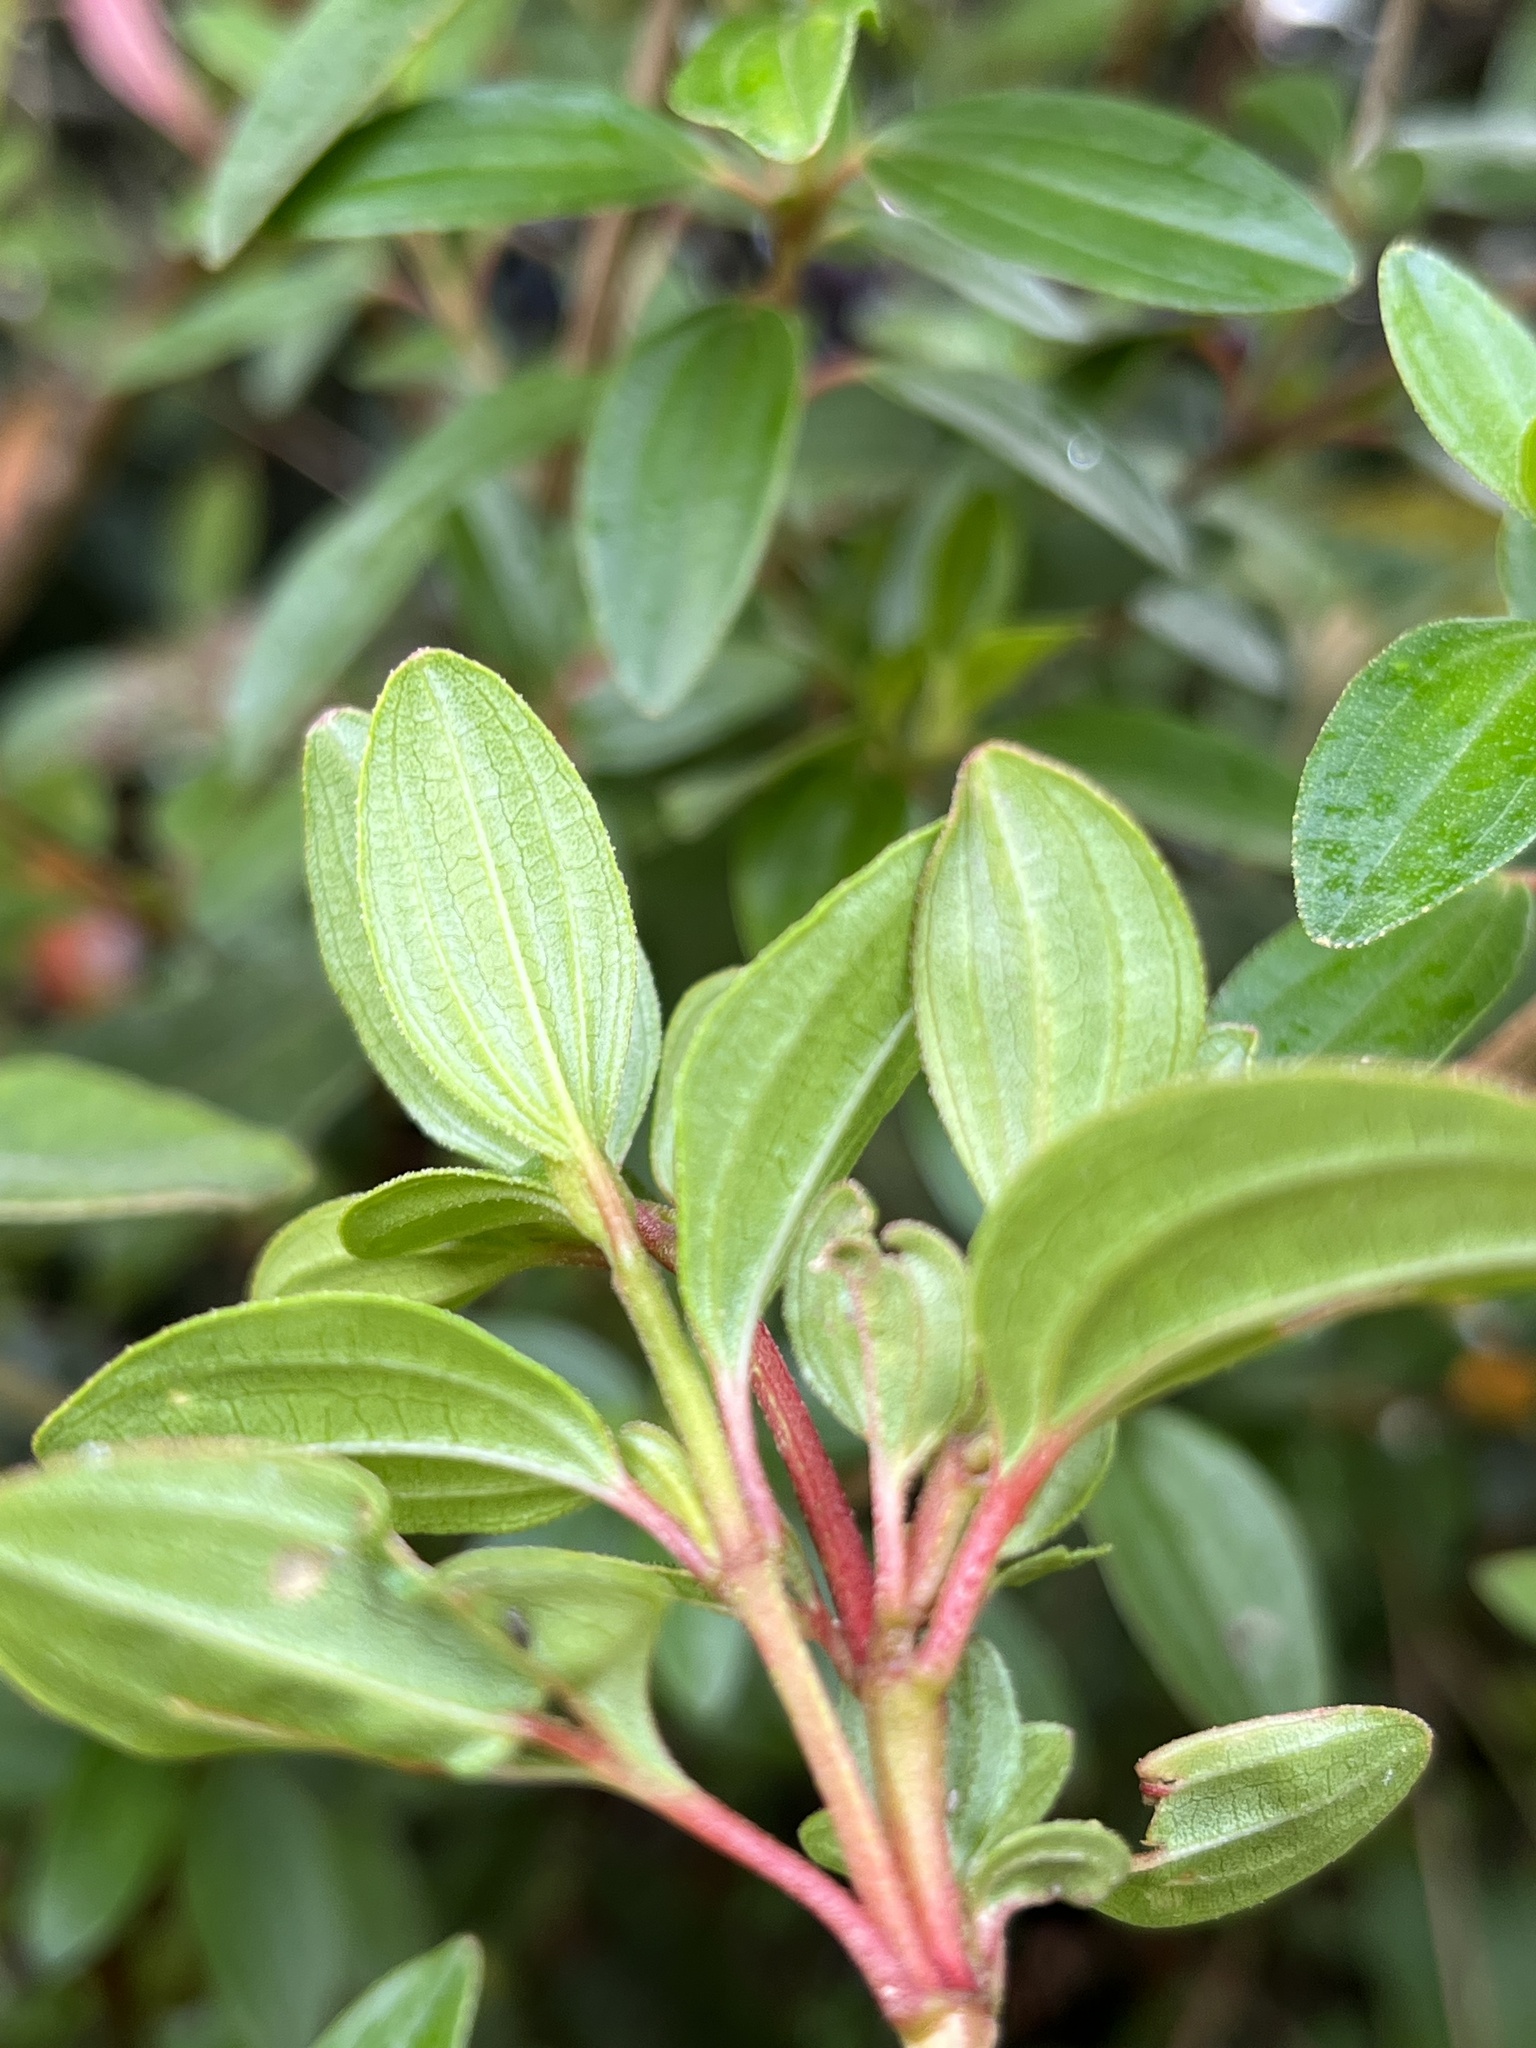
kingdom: Plantae
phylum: Tracheophyta
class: Magnoliopsida
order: Myrtales
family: Melastomataceae
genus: Monochaetum
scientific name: Monochaetum myrtoideum
